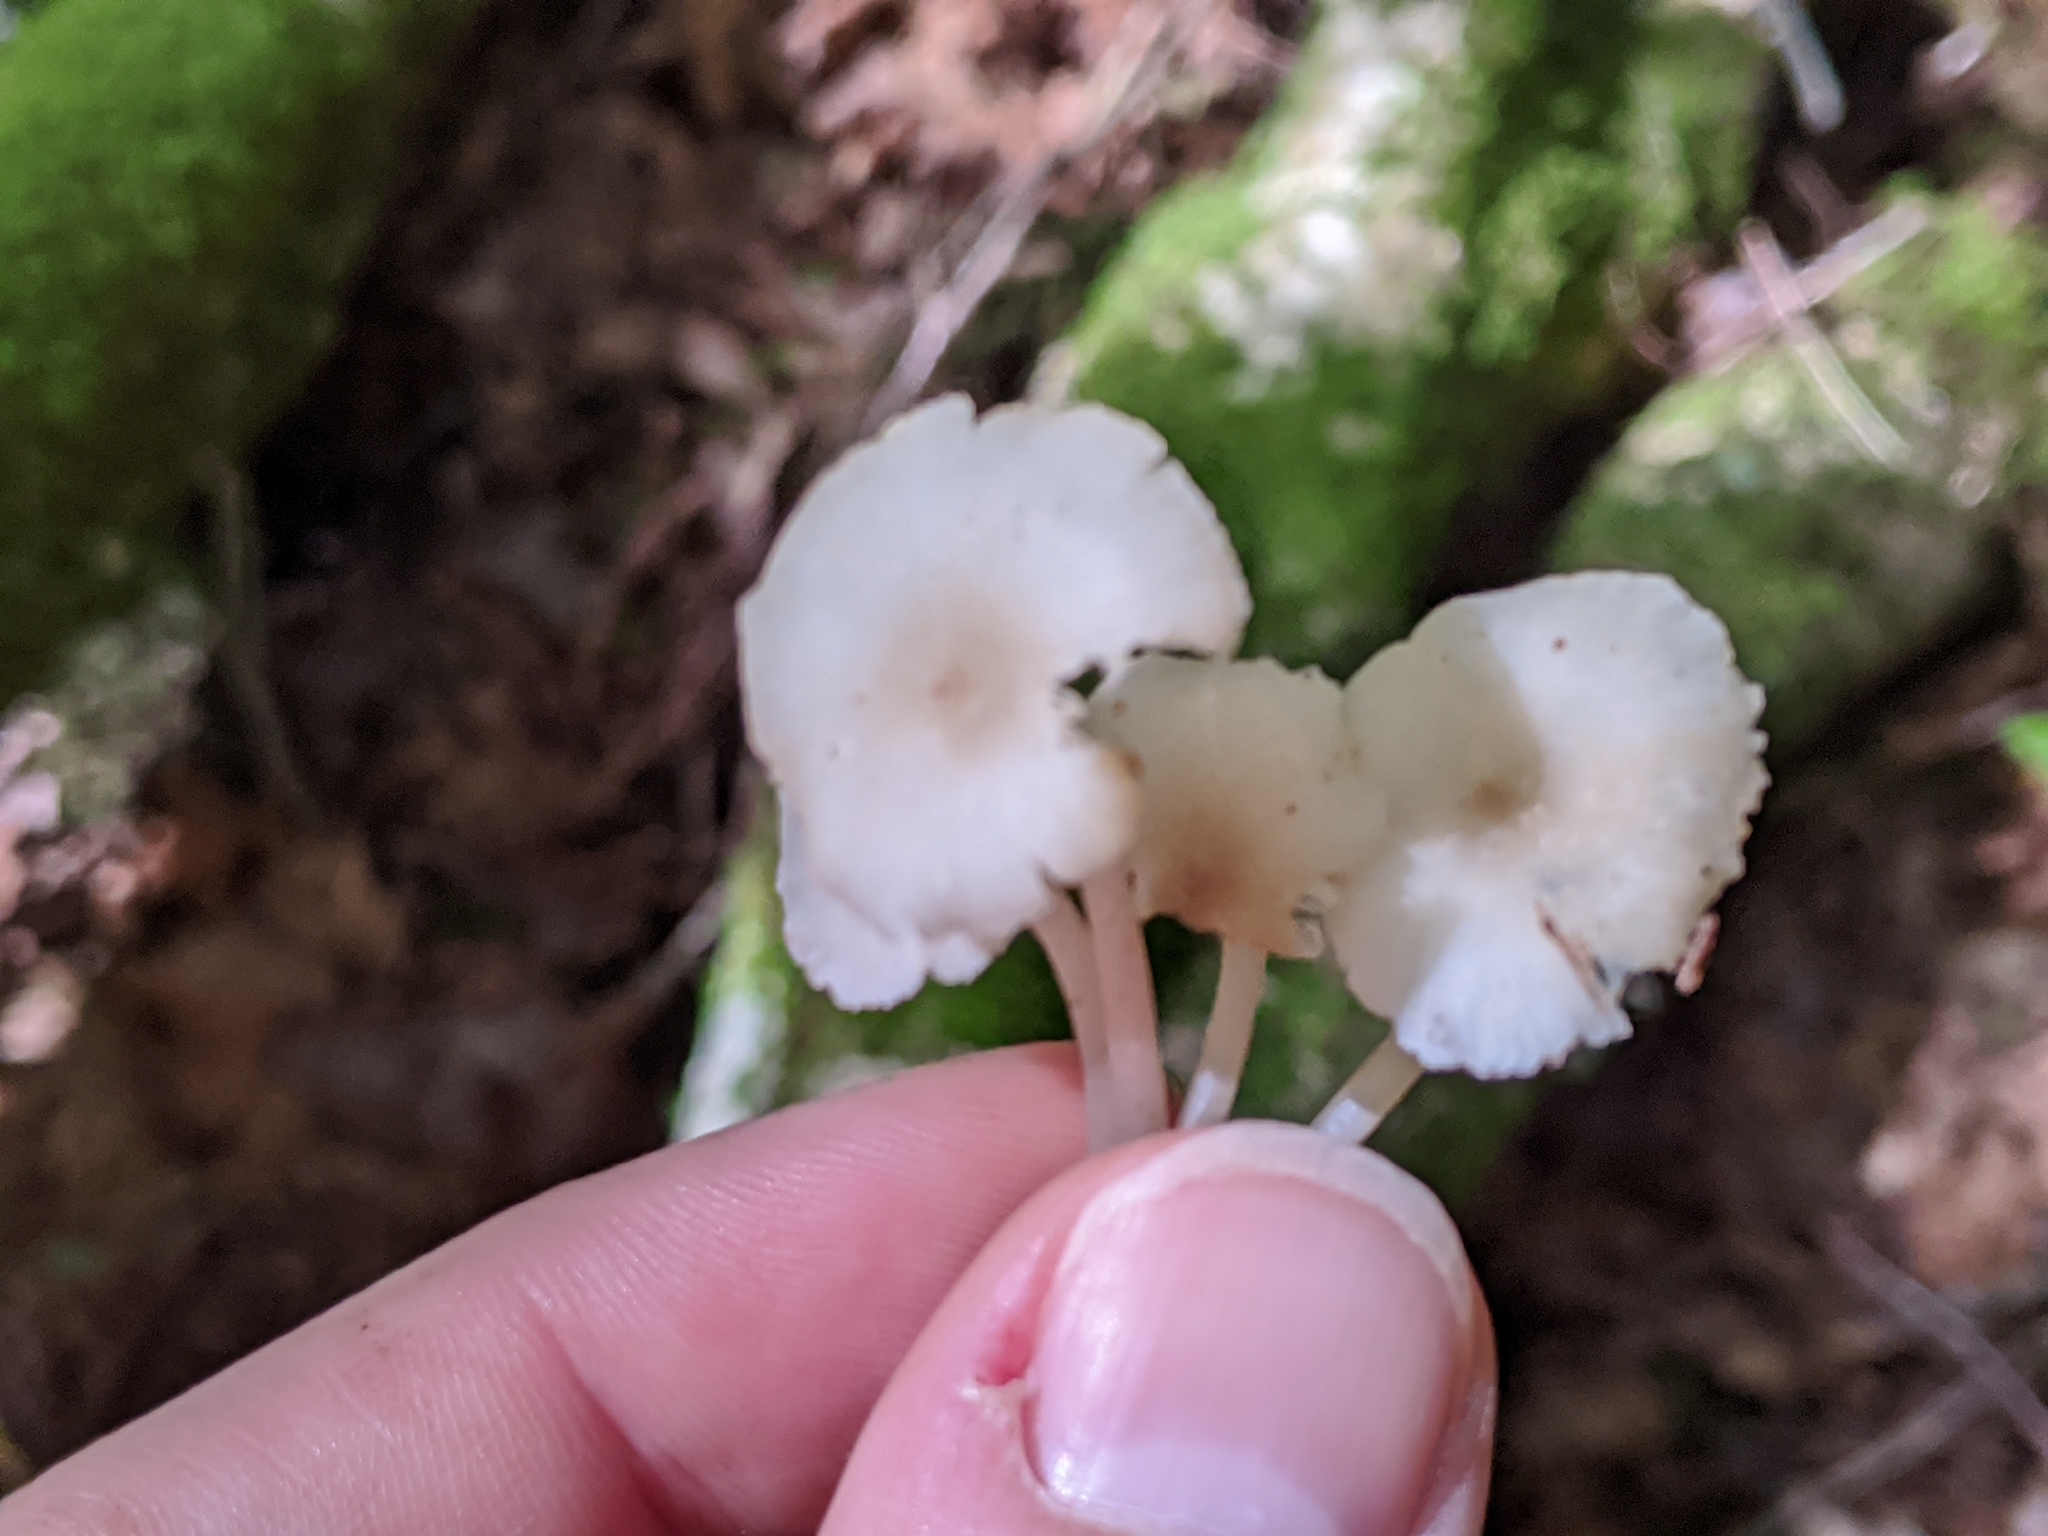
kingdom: Fungi
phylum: Basidiomycota
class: Agaricomycetes
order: Agaricales
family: Marasmiaceae
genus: Clitocybula
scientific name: Clitocybula oculus
